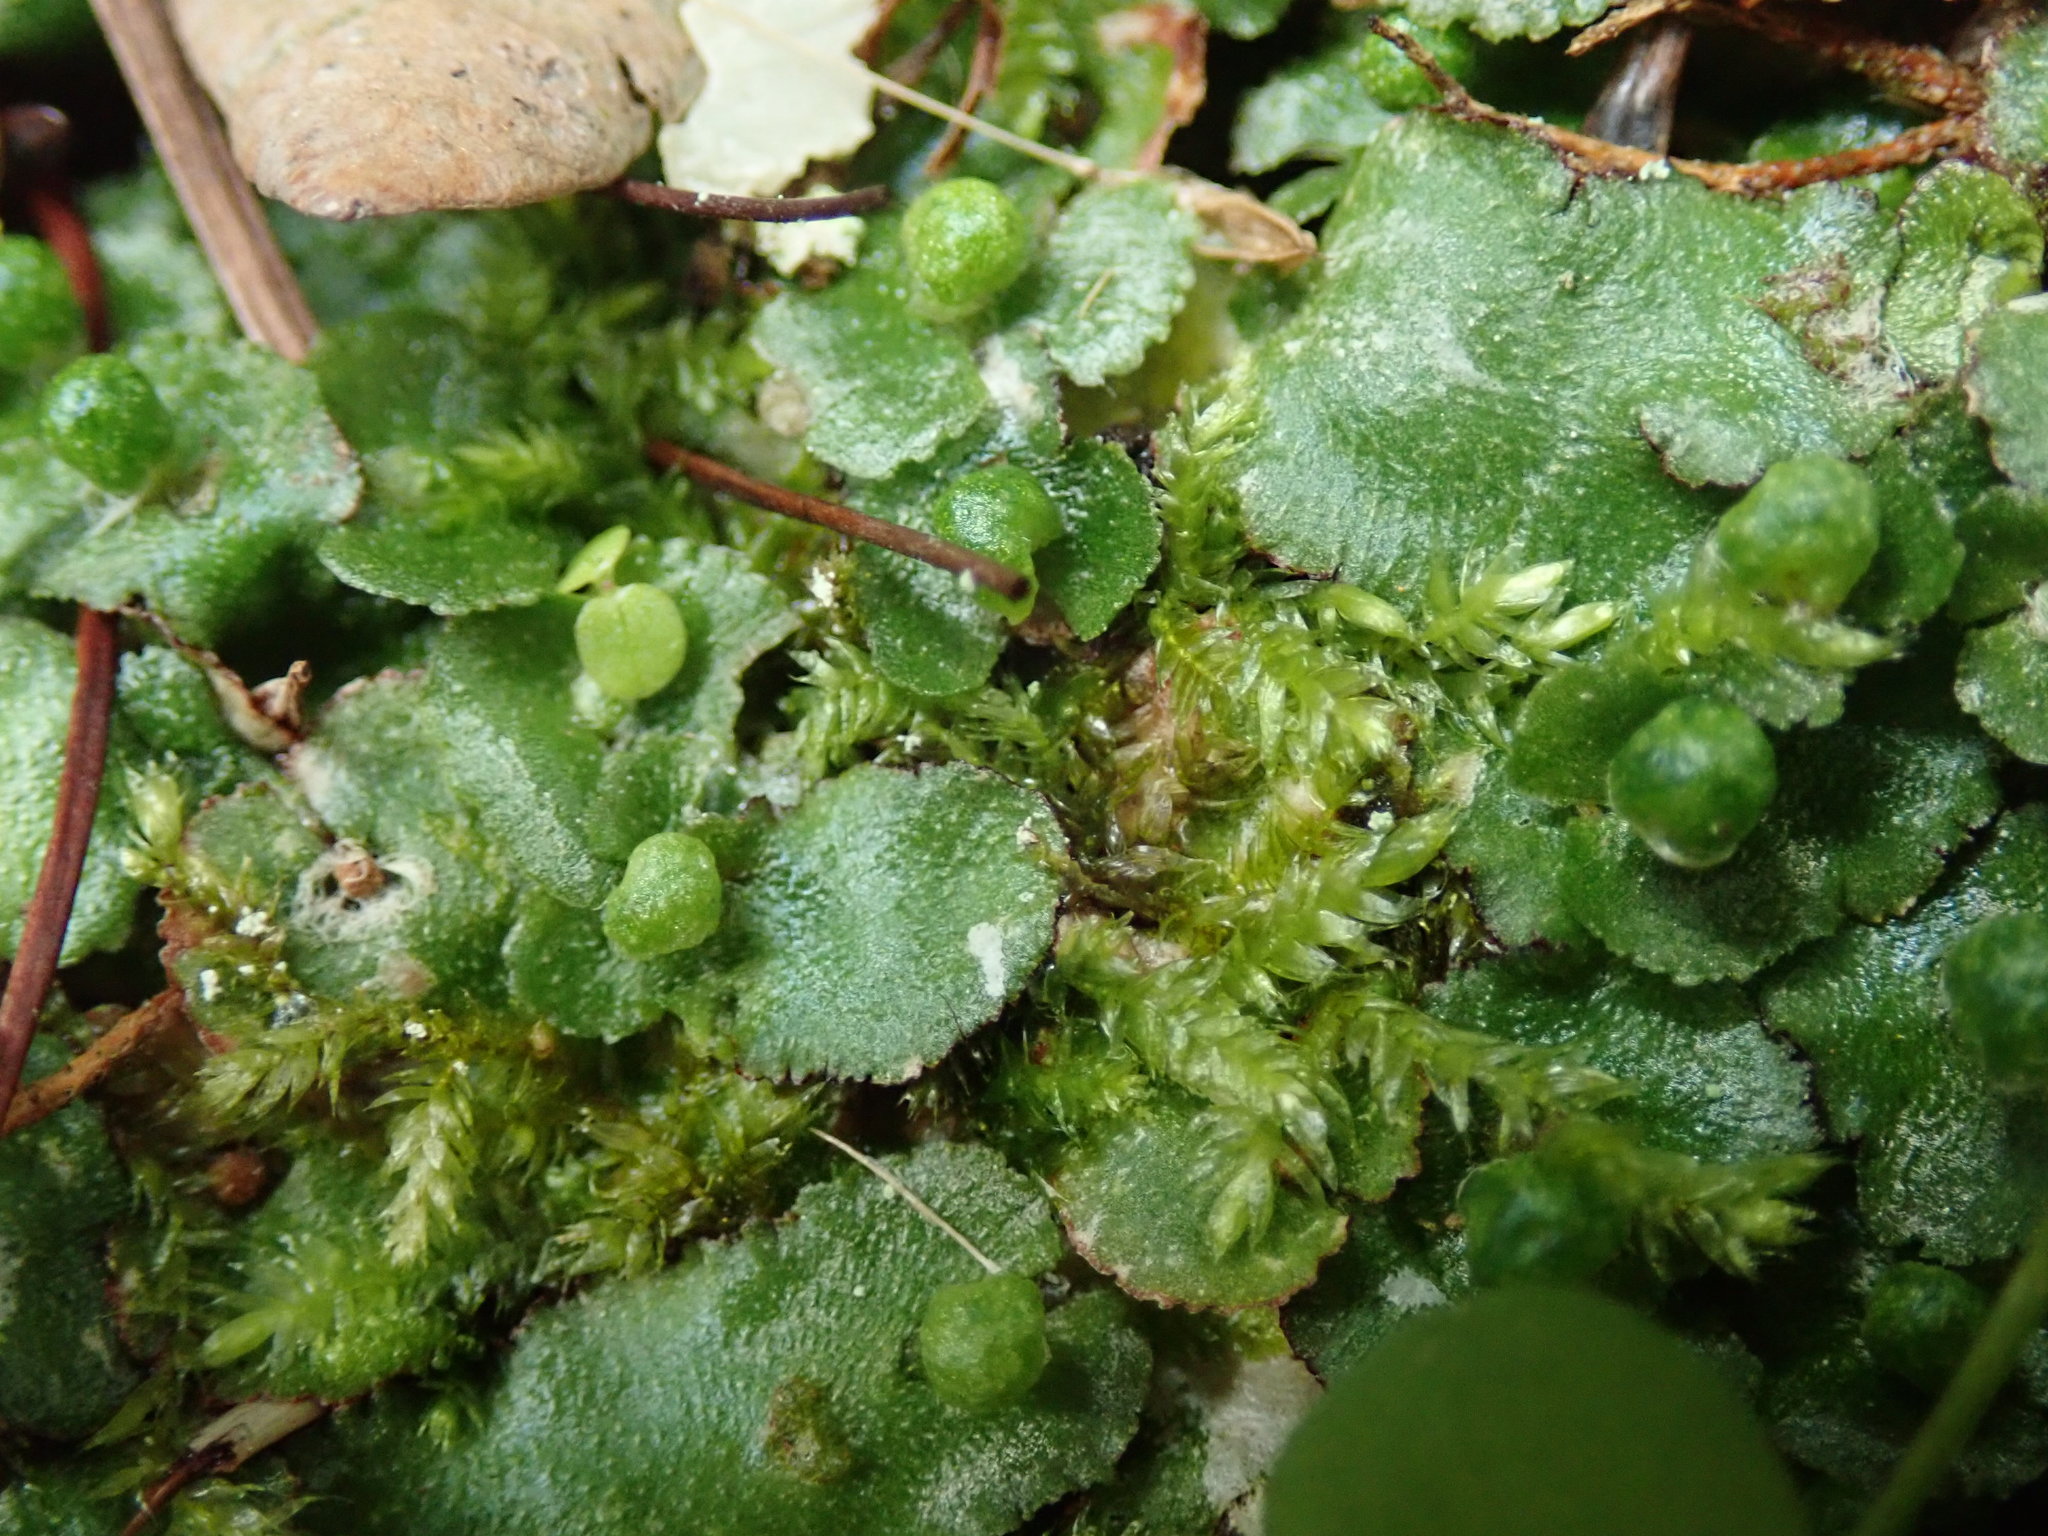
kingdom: Plantae
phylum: Marchantiophyta
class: Marchantiopsida
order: Marchantiales
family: Aytoniaceae
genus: Reboulia
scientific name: Reboulia hemisphaerica
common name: Purple-margined liverwort
